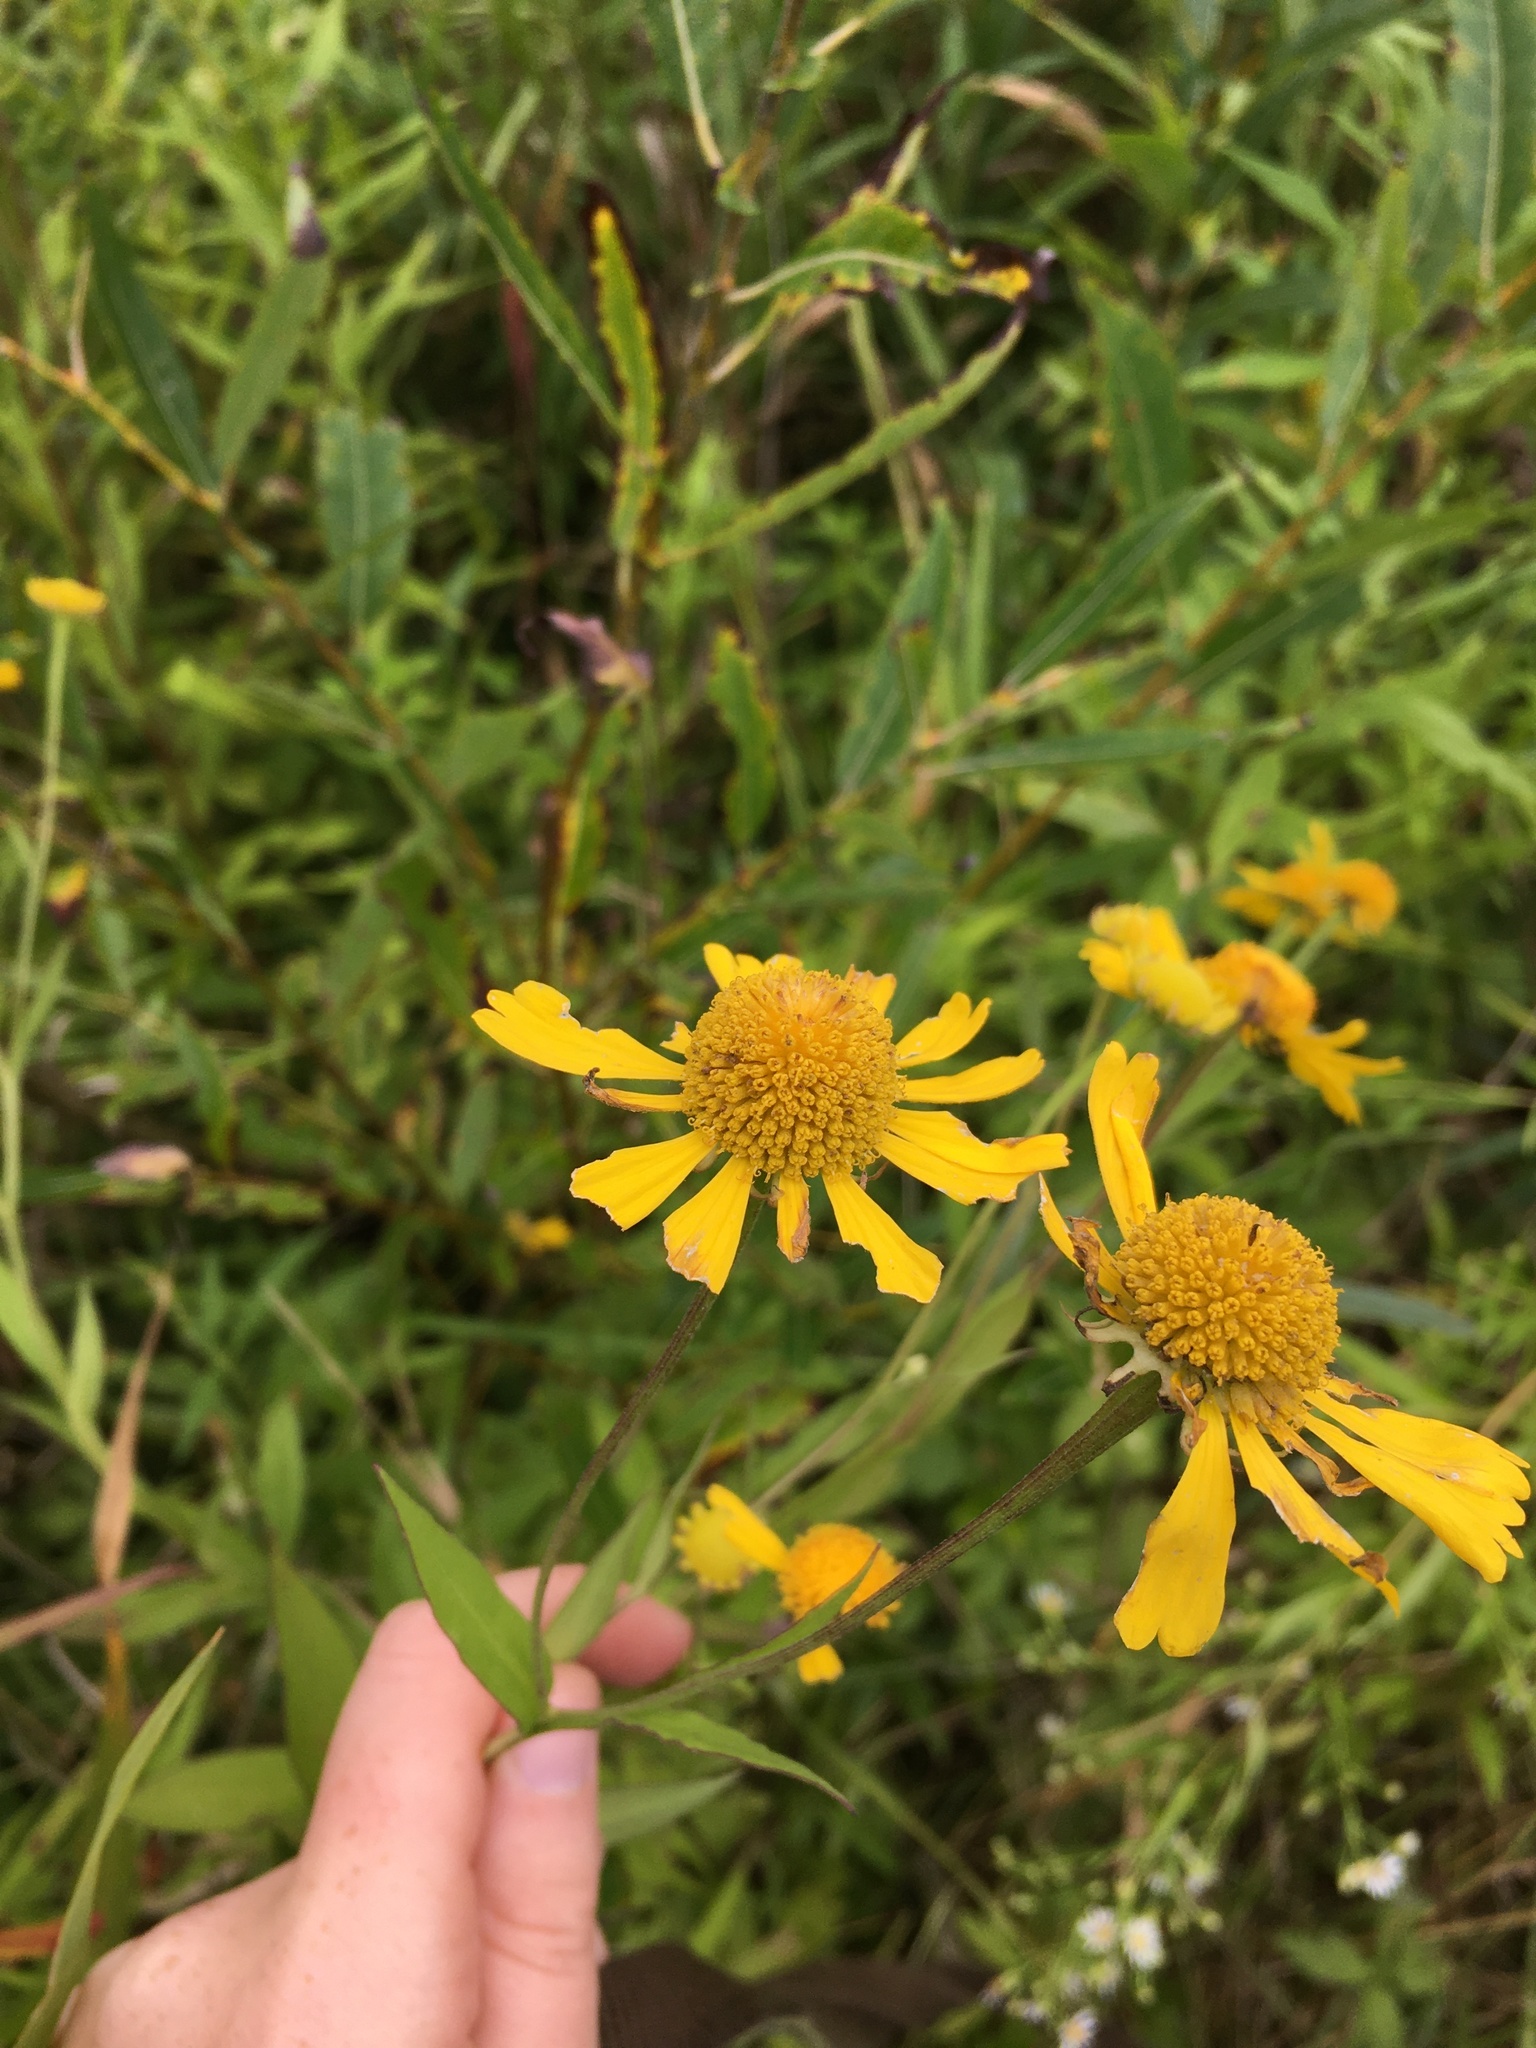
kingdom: Plantae
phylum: Tracheophyta
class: Magnoliopsida
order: Asterales
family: Asteraceae
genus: Helenium
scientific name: Helenium autumnale
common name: Sneezeweed
